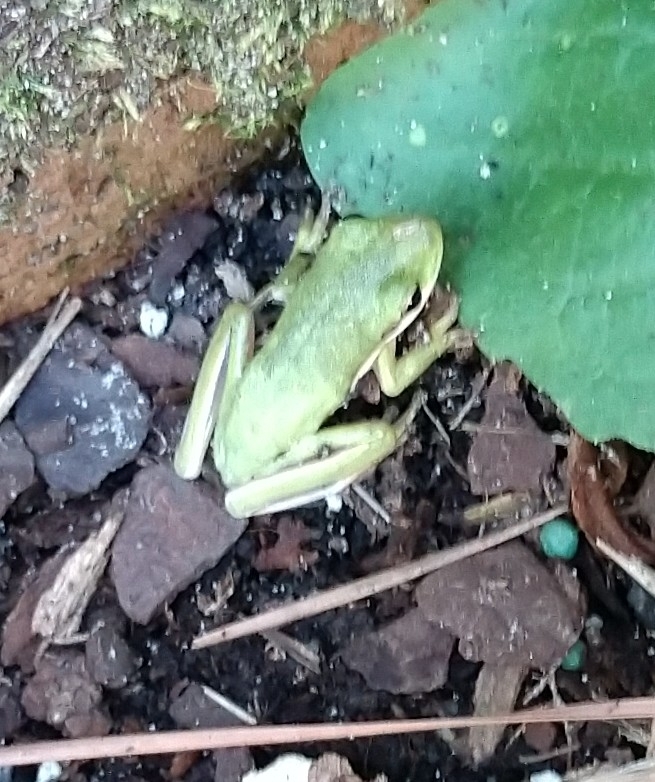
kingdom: Animalia
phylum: Chordata
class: Amphibia
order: Anura
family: Hylidae
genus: Dryophytes
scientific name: Dryophytes cinereus
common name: Green treefrog
